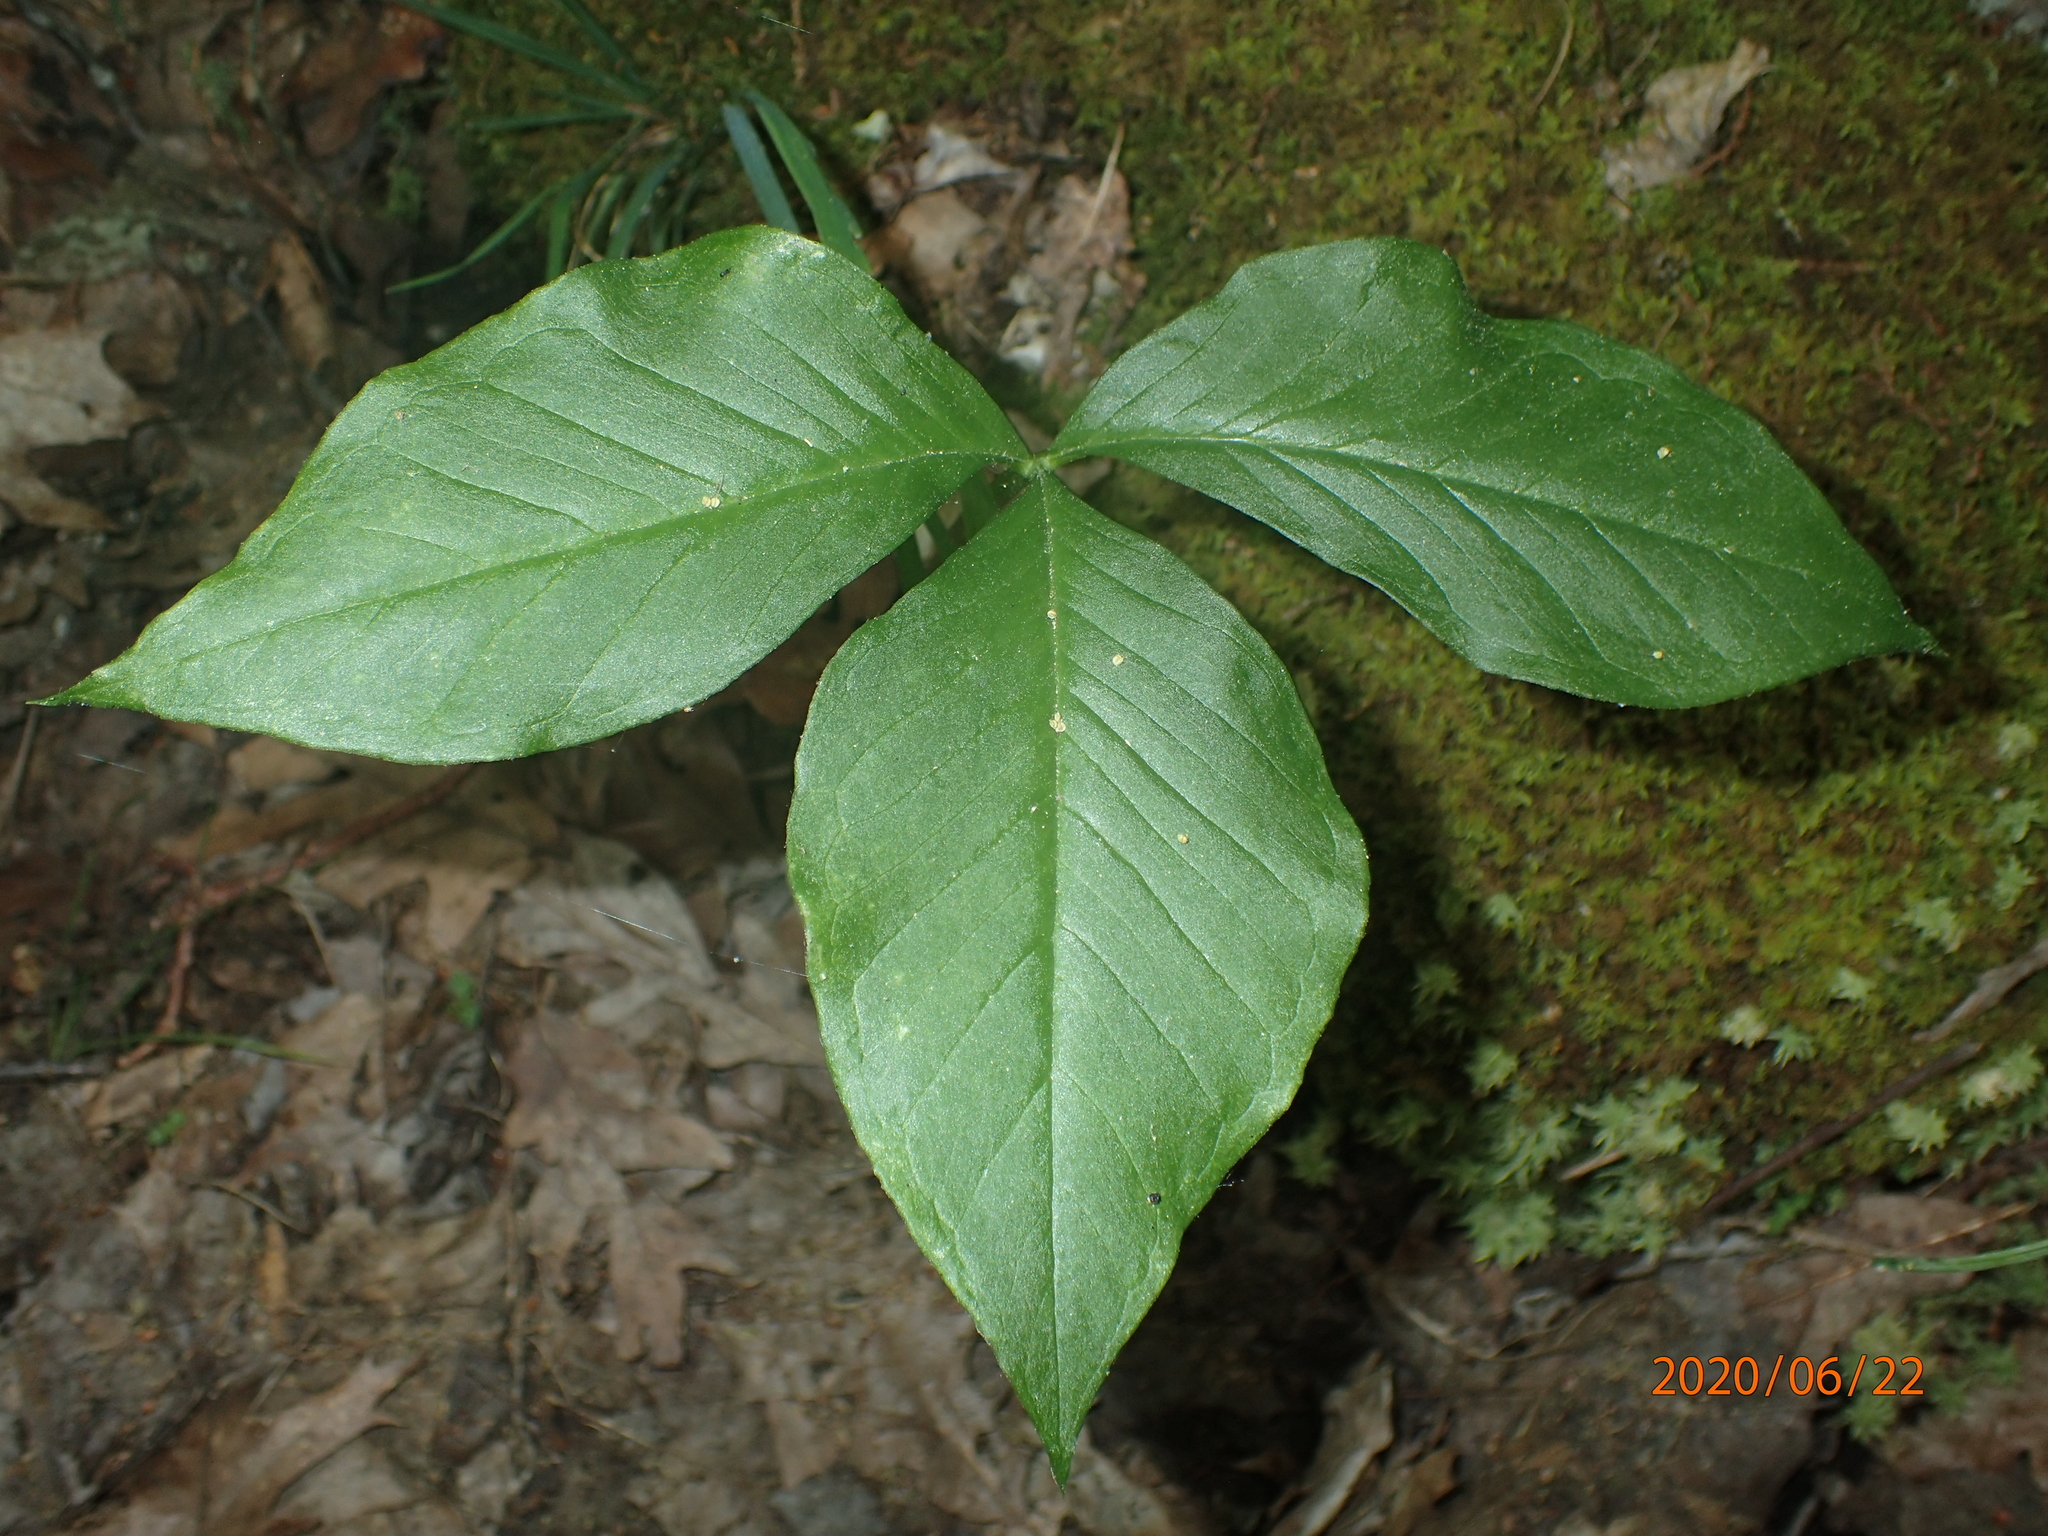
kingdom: Plantae
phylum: Tracheophyta
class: Liliopsida
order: Alismatales
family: Araceae
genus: Arisaema
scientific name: Arisaema triphyllum
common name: Jack-in-the-pulpit
